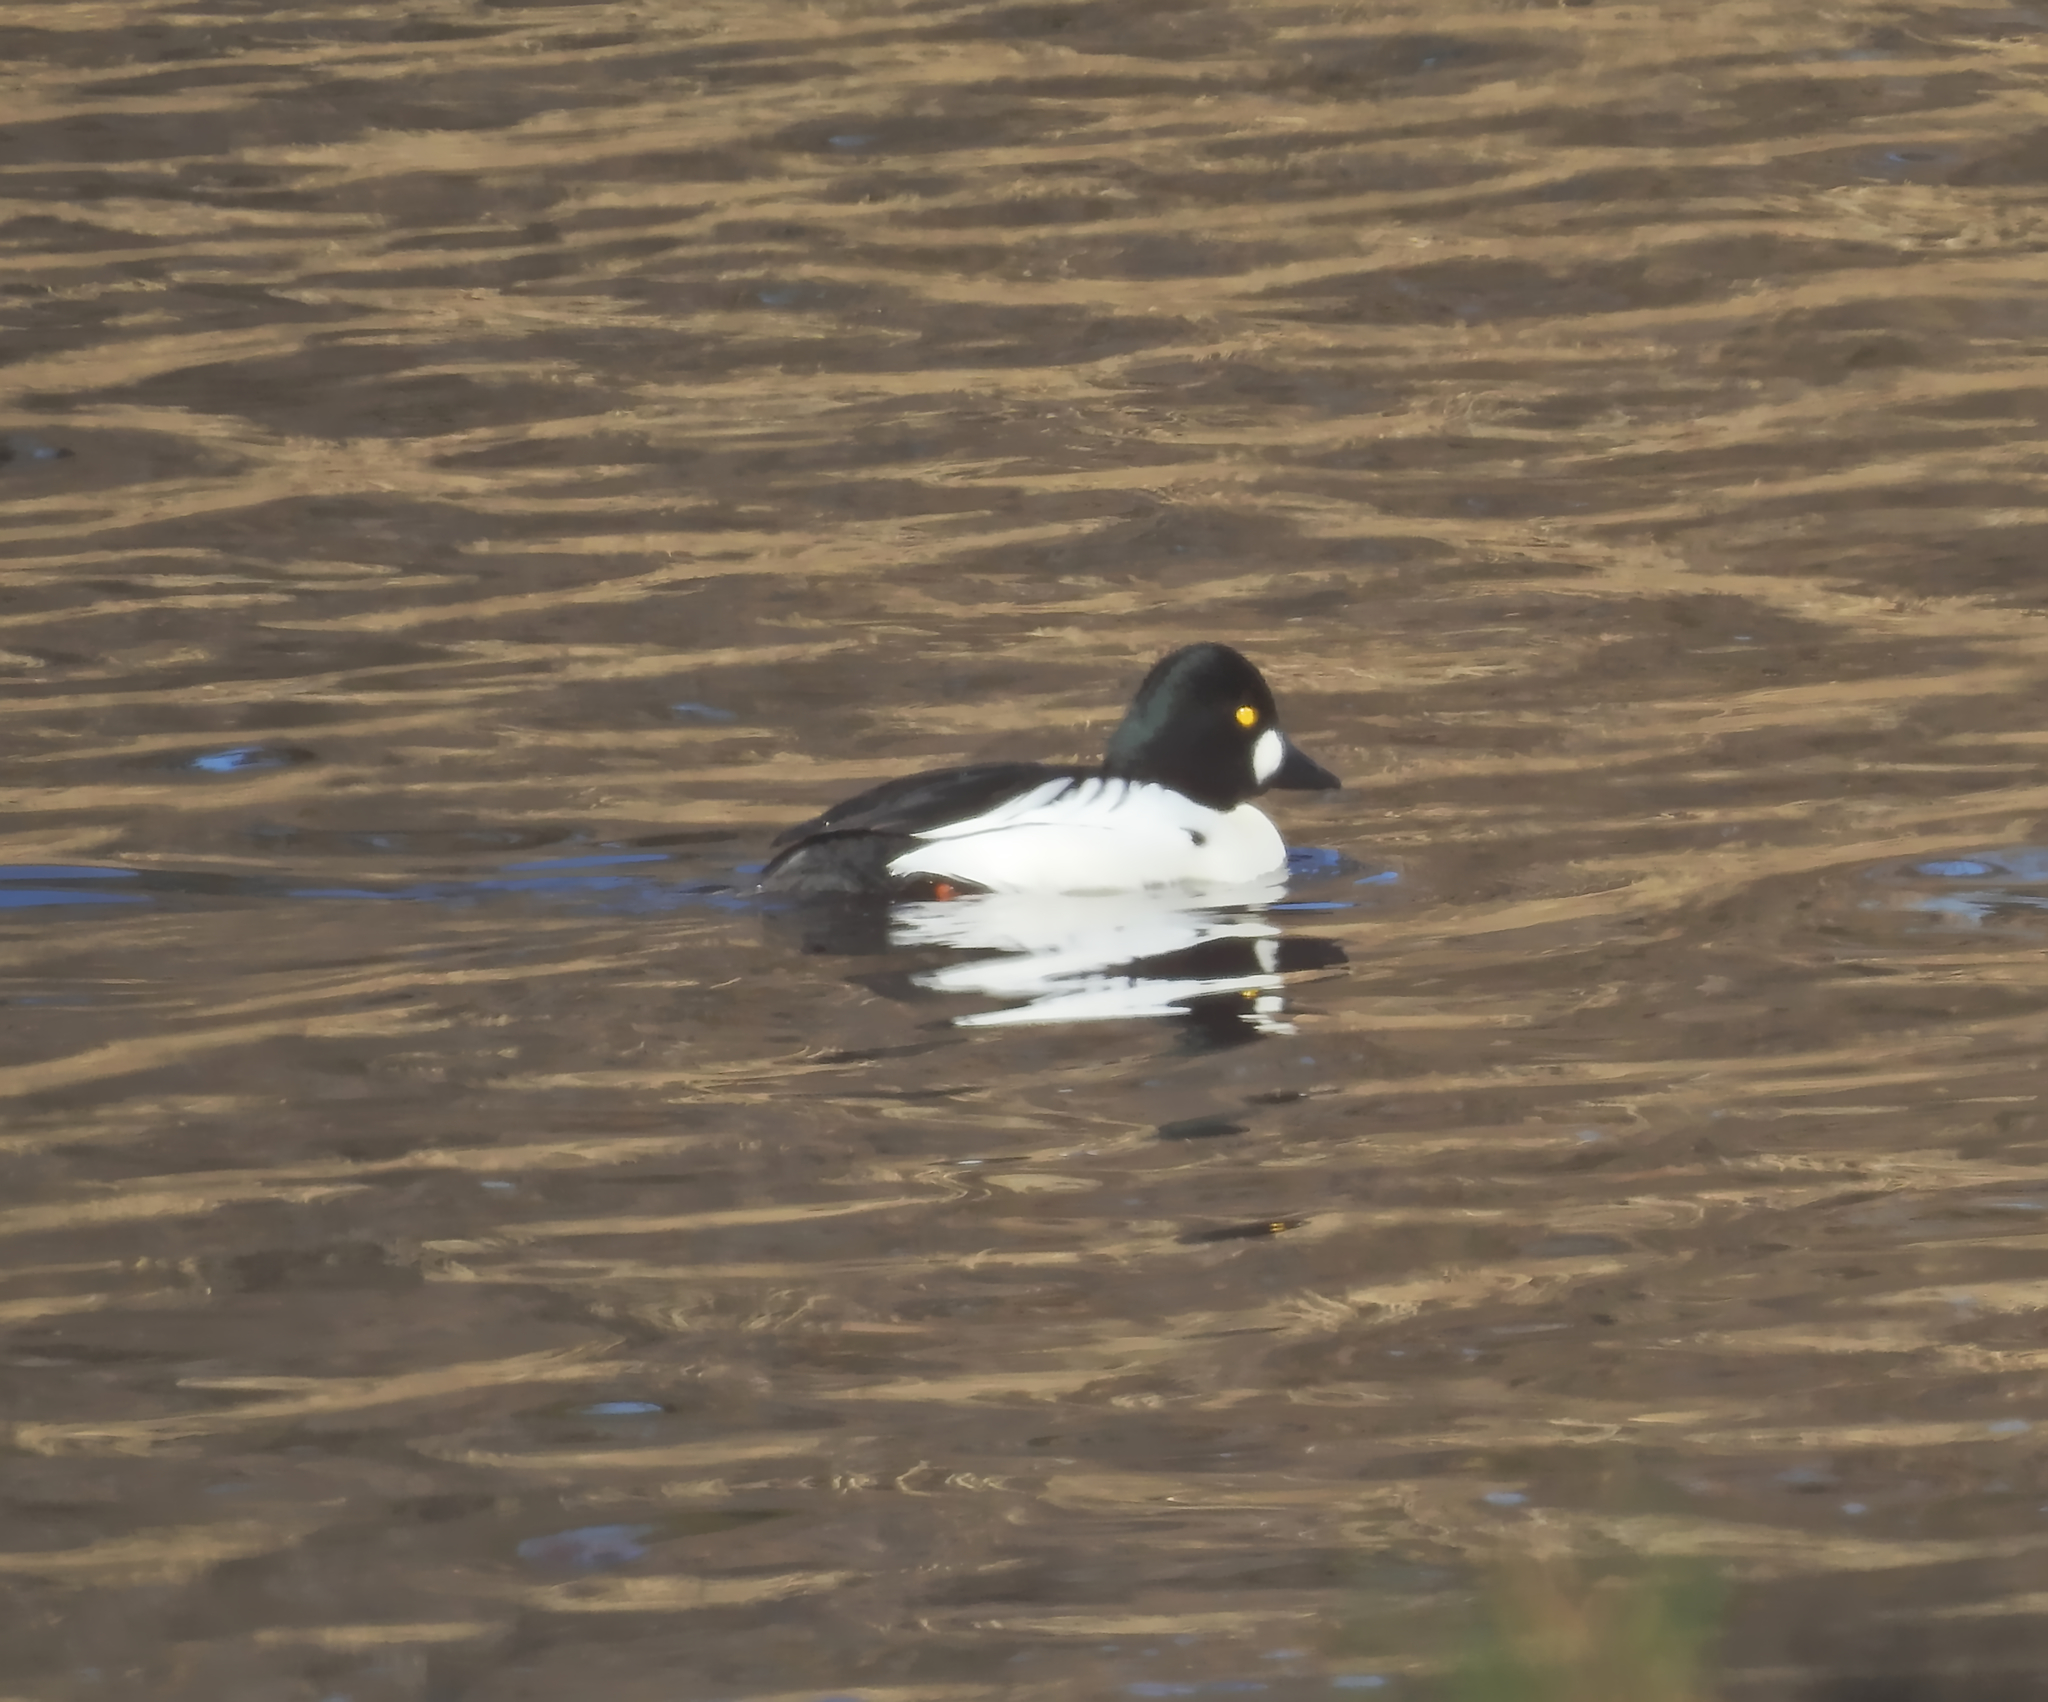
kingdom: Animalia
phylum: Chordata
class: Aves
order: Anseriformes
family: Anatidae
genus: Bucephala
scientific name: Bucephala clangula
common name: Common goldeneye
